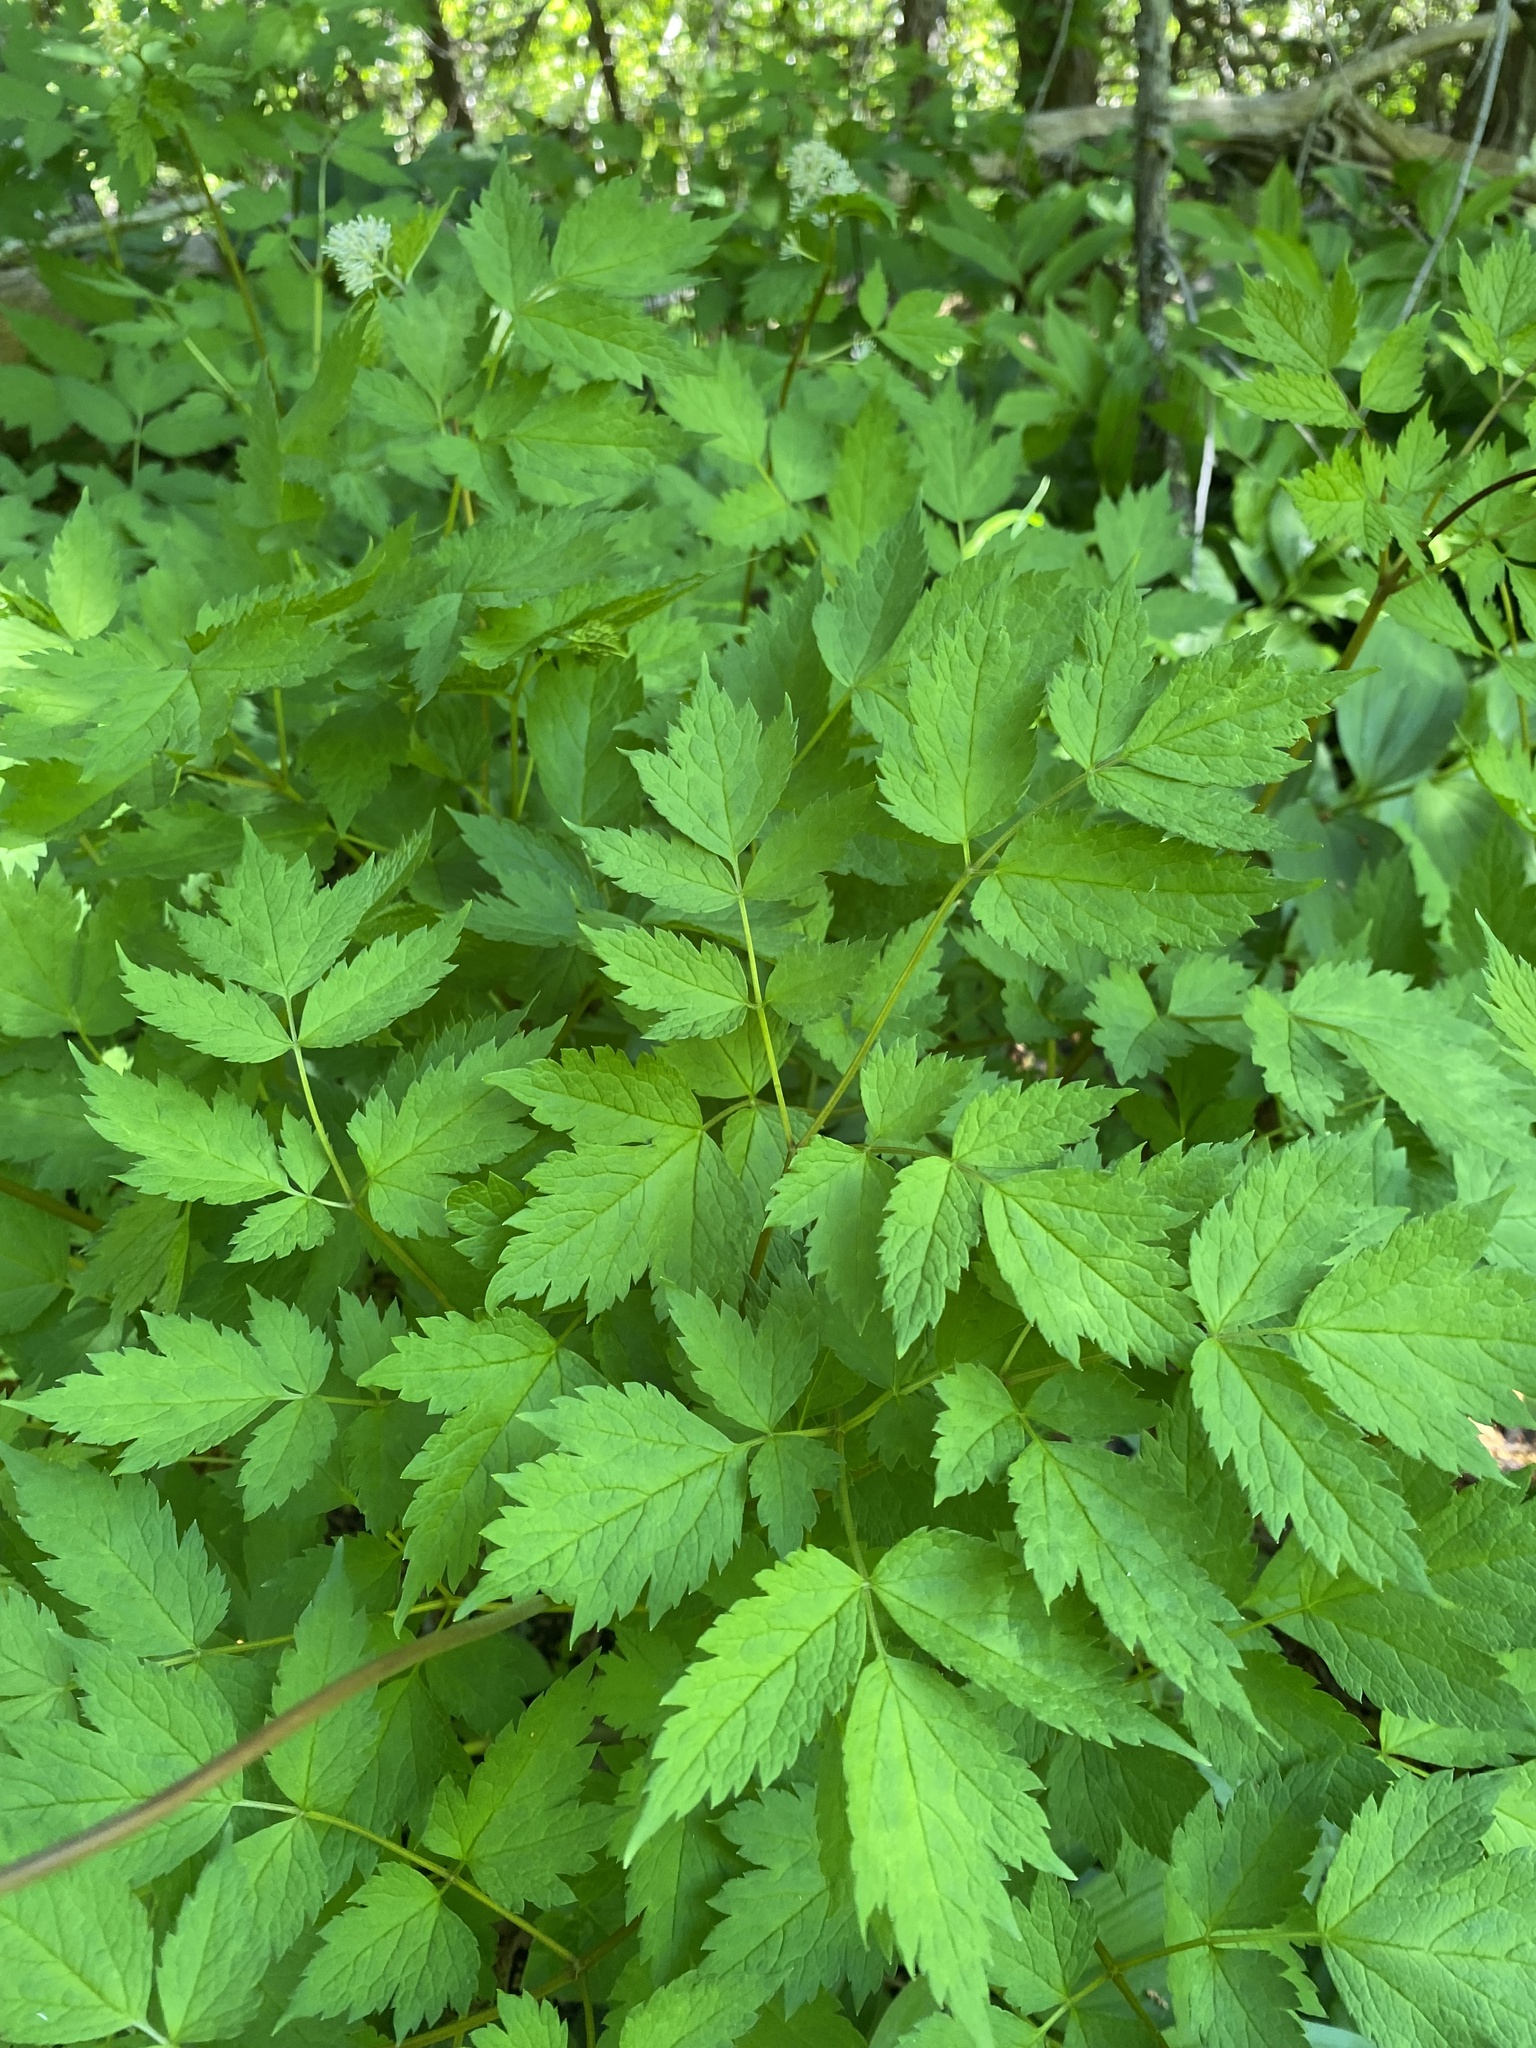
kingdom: Plantae
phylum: Tracheophyta
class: Magnoliopsida
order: Ranunculales
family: Ranunculaceae
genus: Actaea
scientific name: Actaea rubra
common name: Red baneberry
